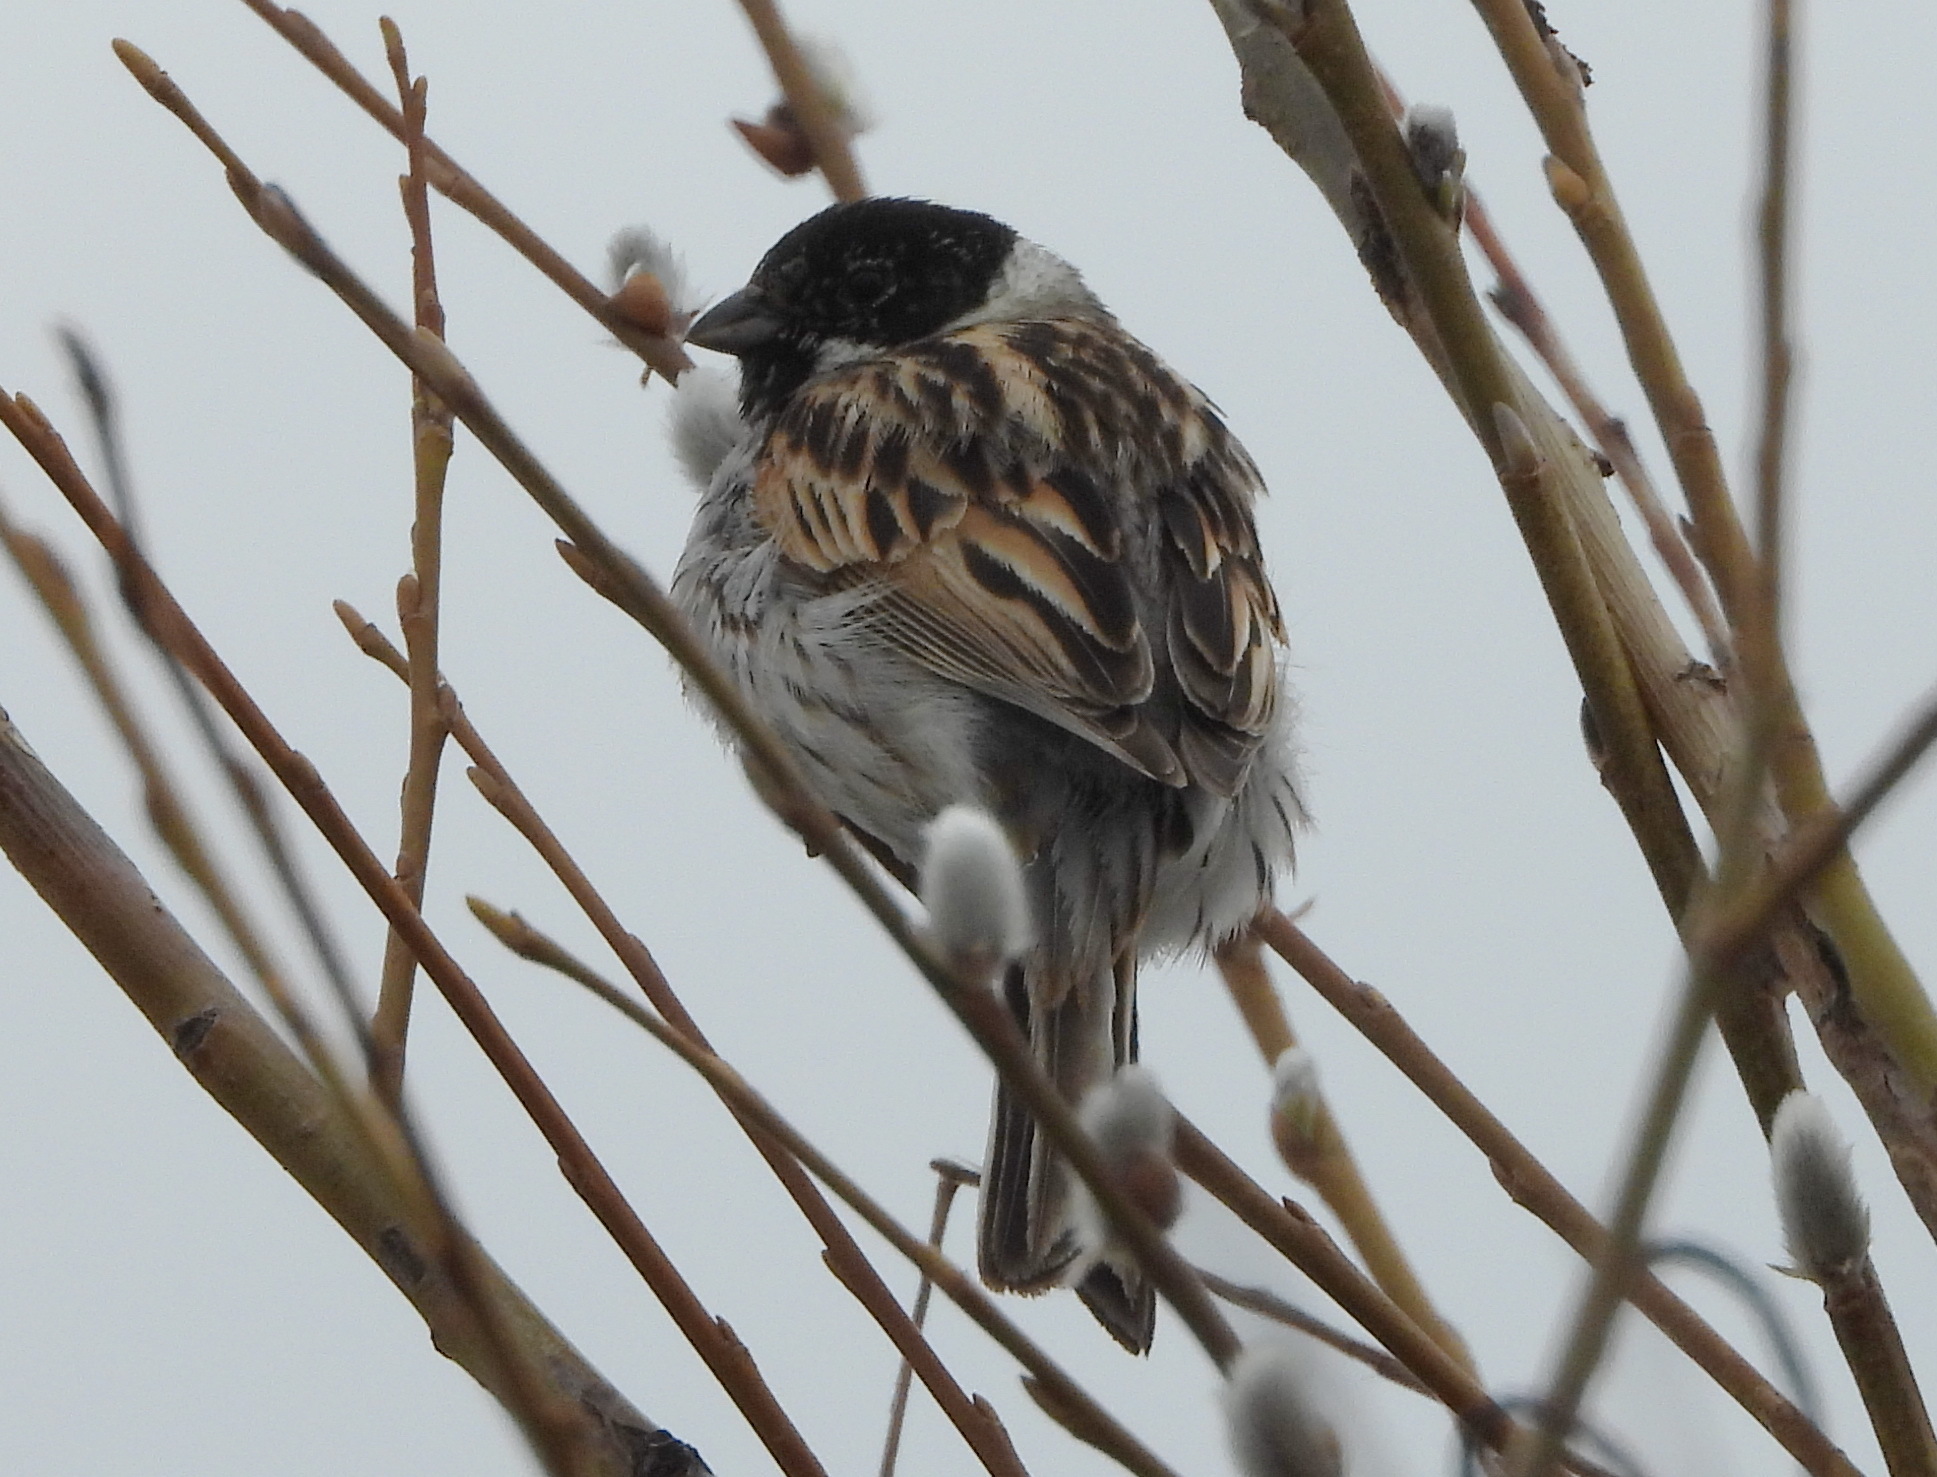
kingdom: Animalia
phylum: Chordata
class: Aves
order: Passeriformes
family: Emberizidae
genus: Emberiza
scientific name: Emberiza schoeniclus
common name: Reed bunting
